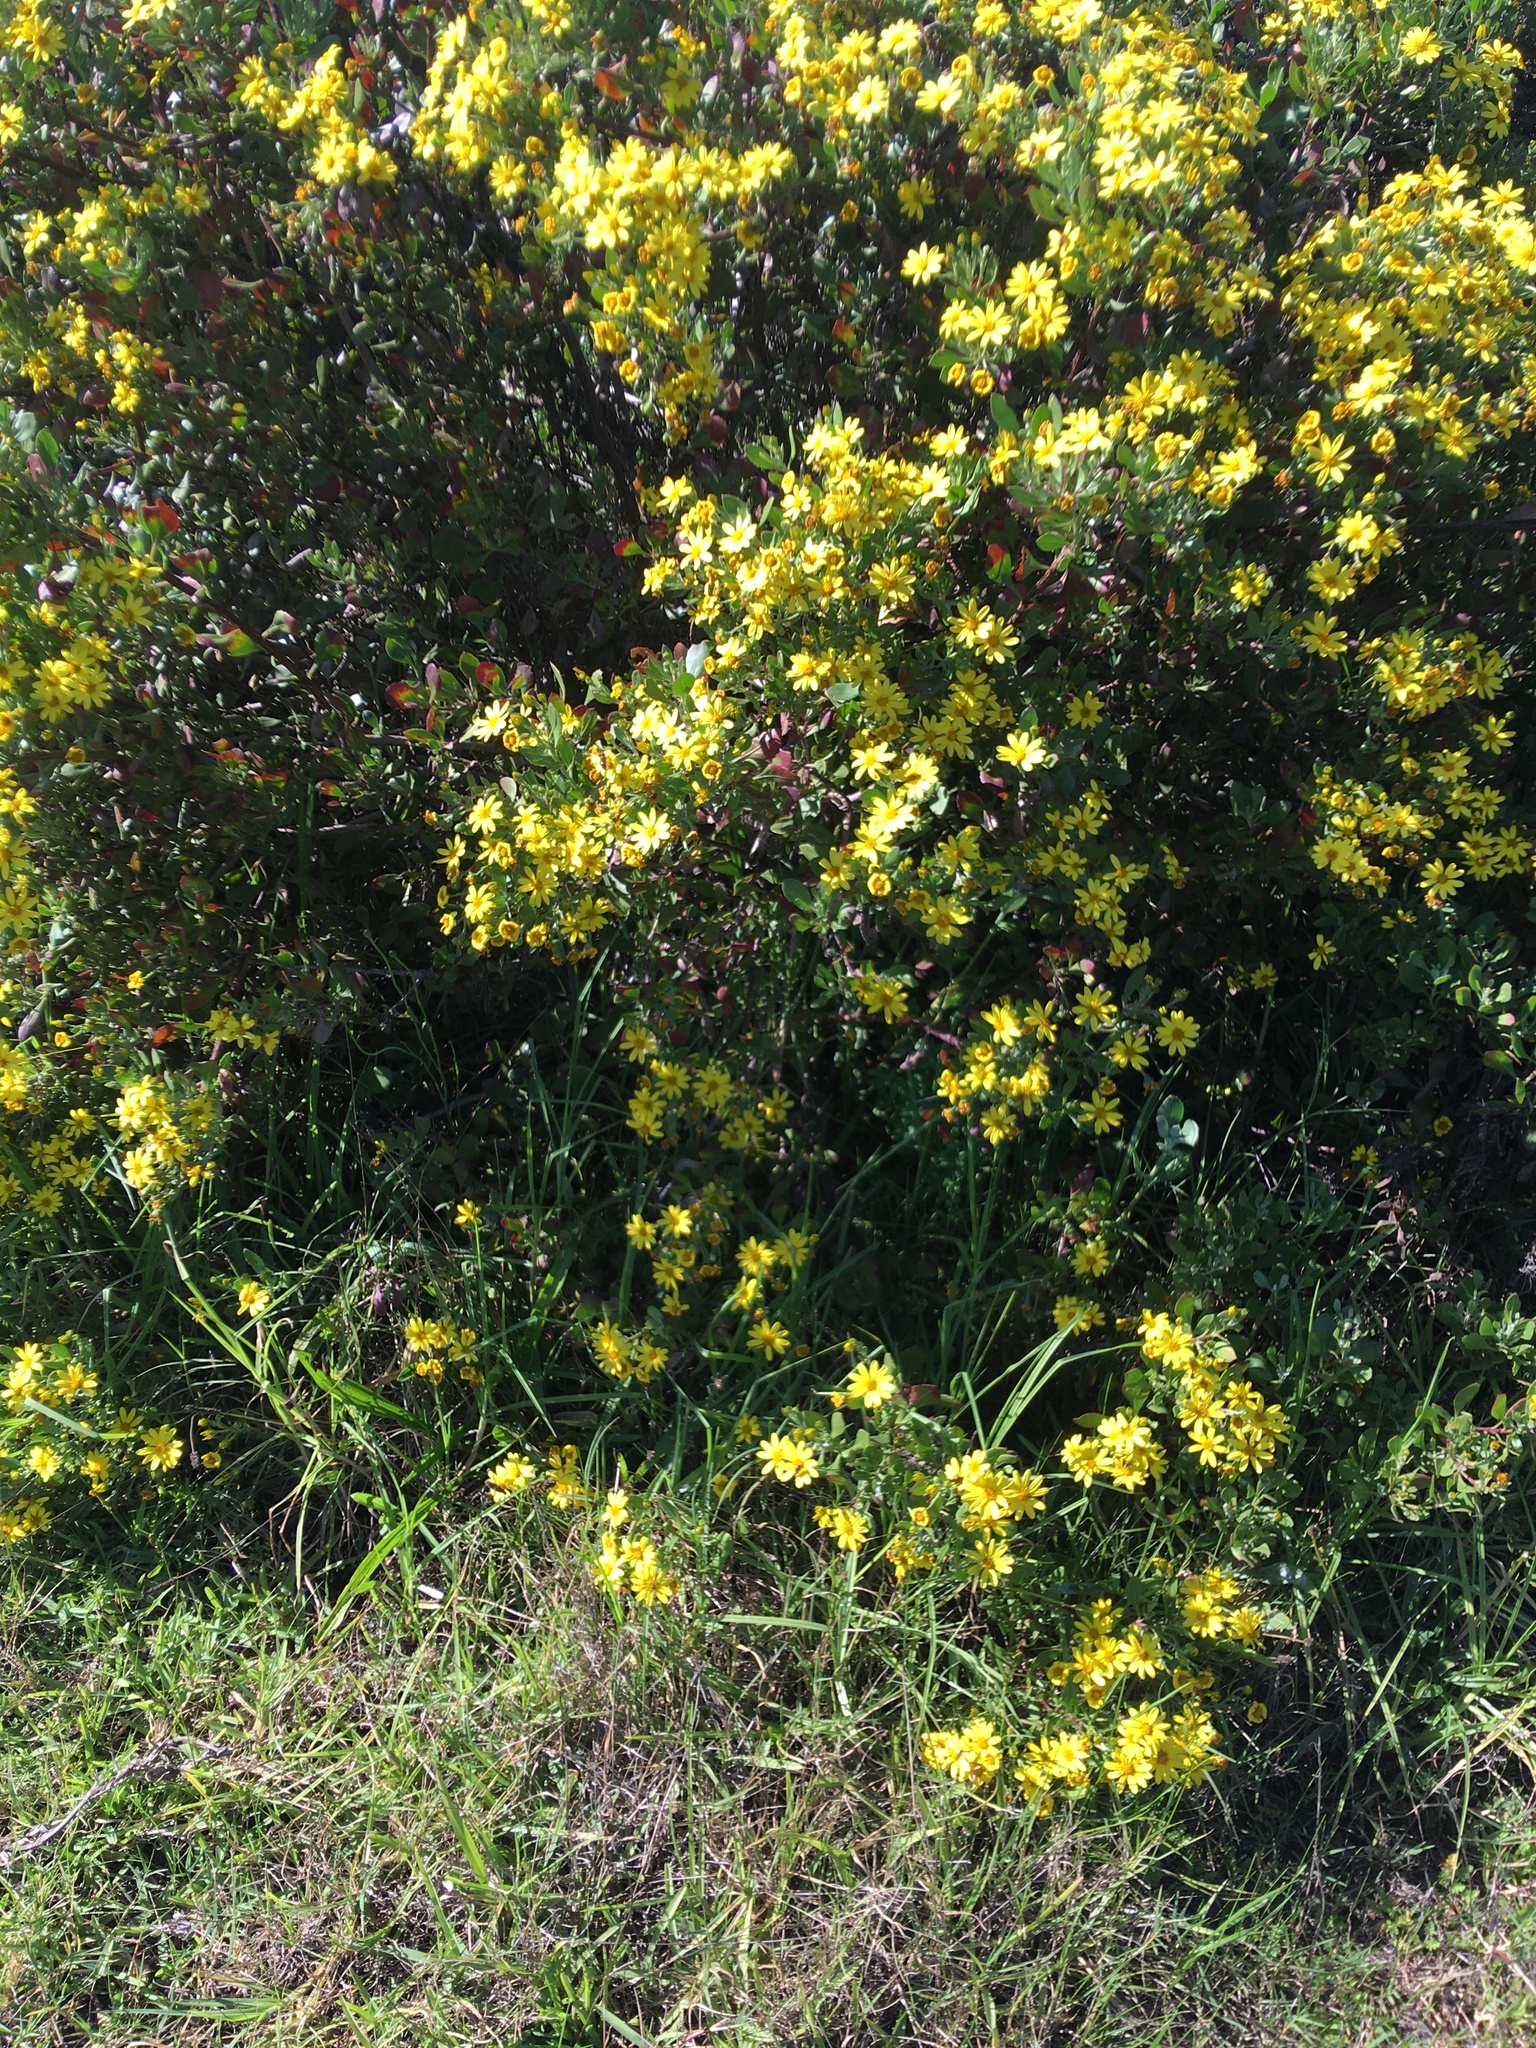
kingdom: Plantae
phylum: Tracheophyta
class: Magnoliopsida
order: Asterales
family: Asteraceae
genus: Osteospermum
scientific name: Osteospermum moniliferum
